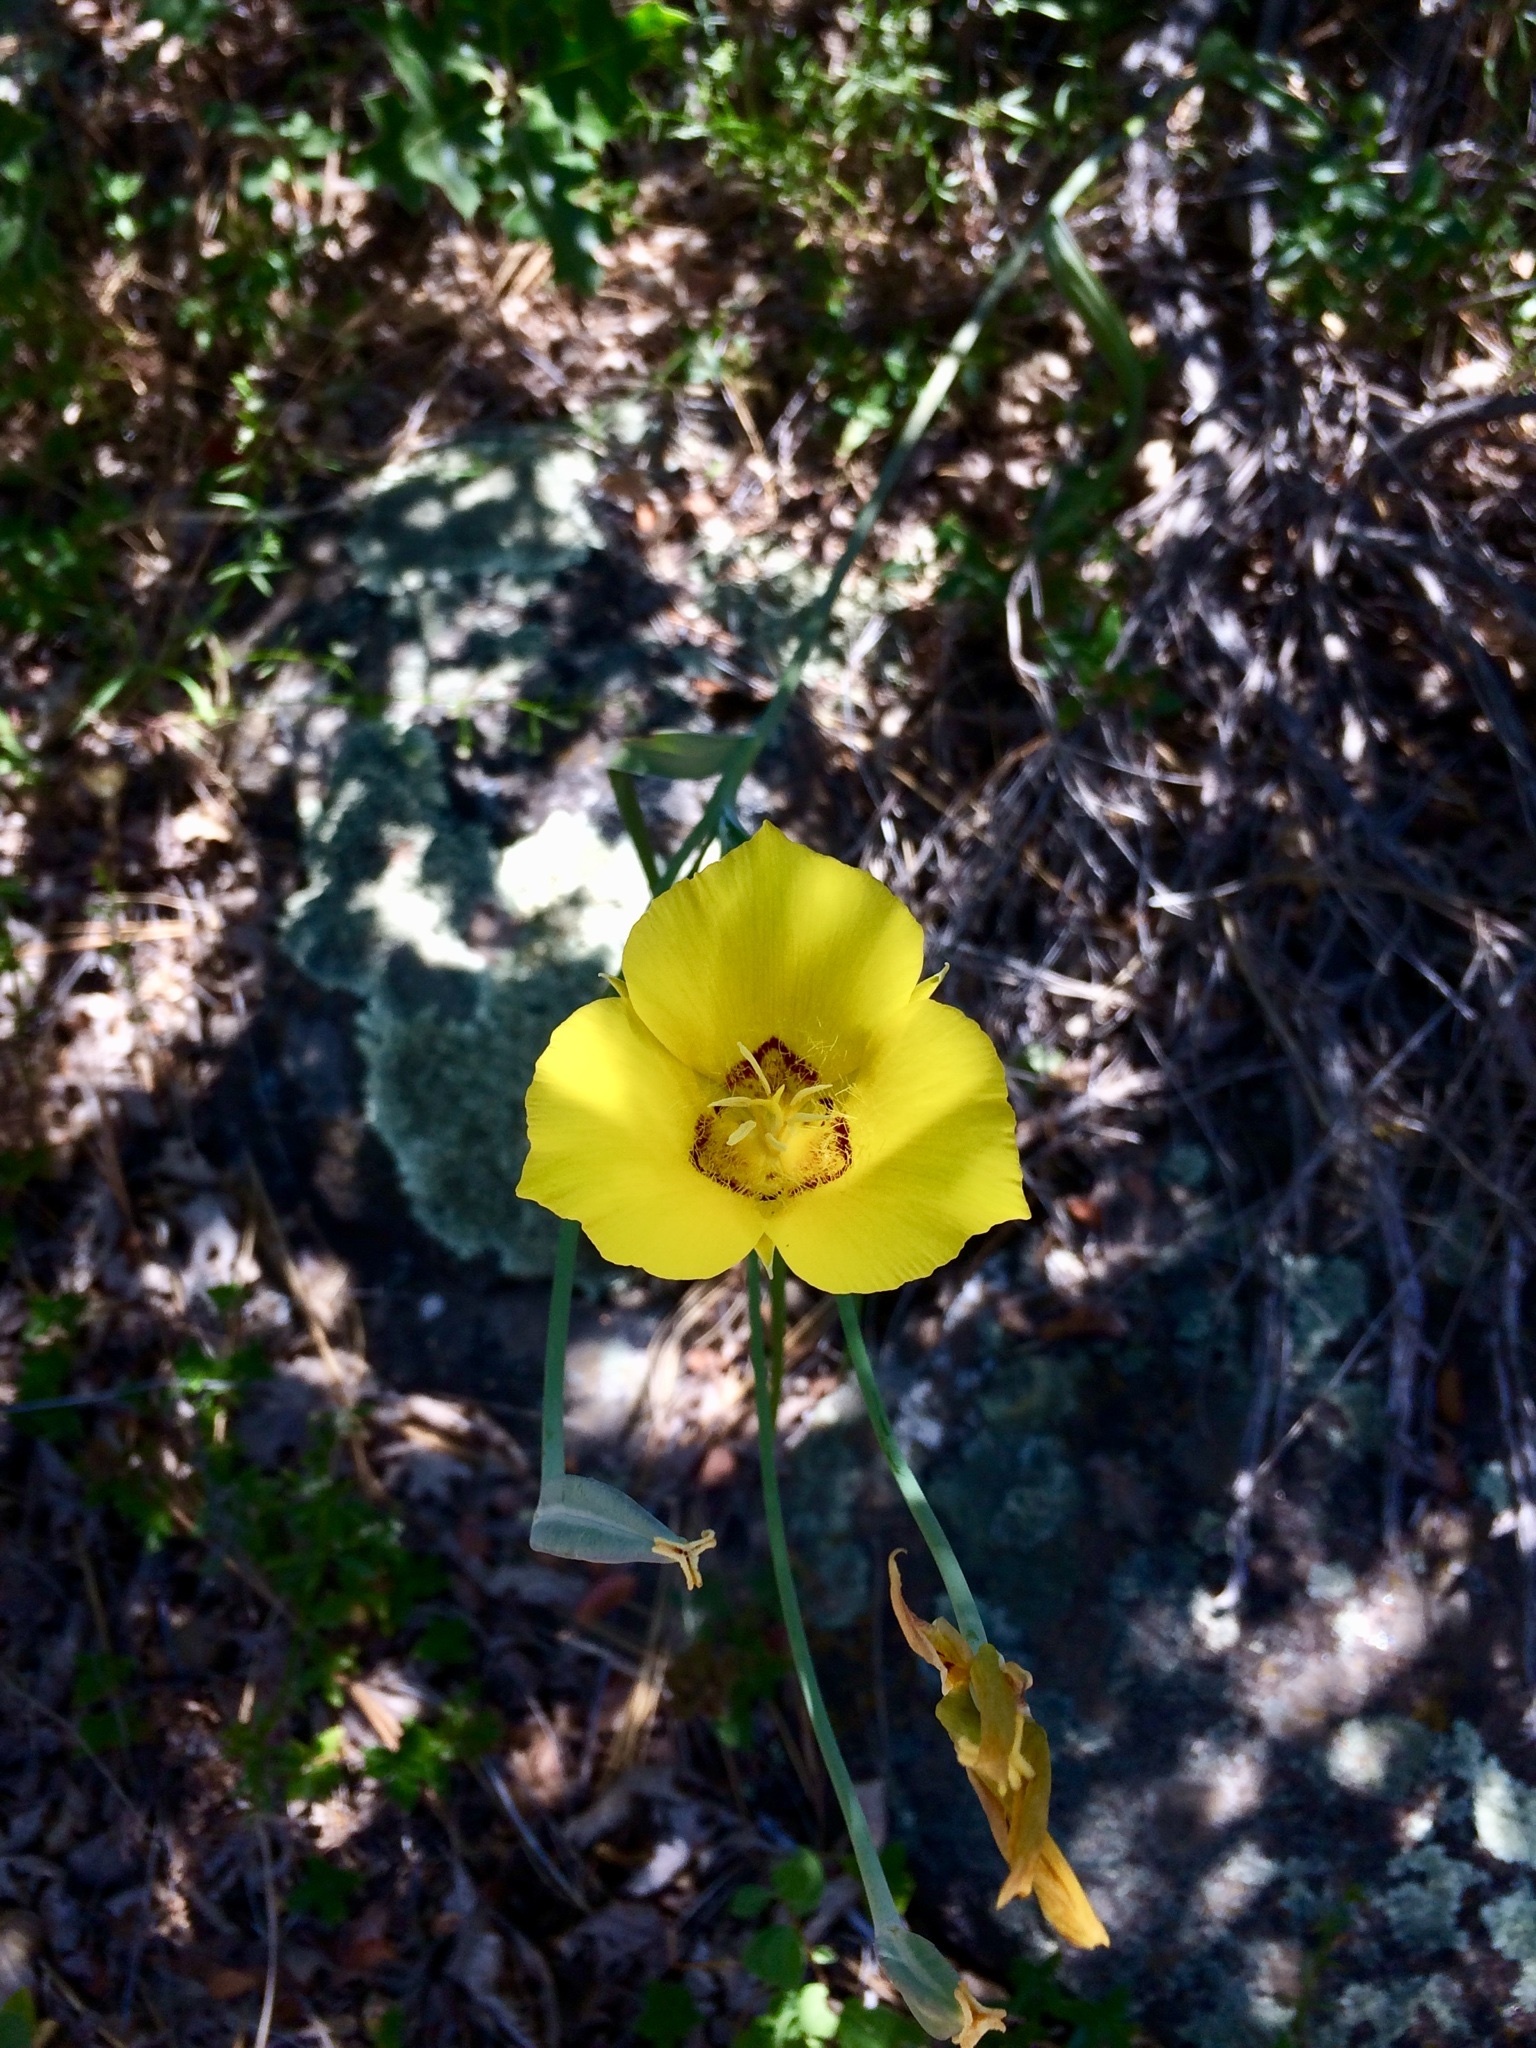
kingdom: Plantae
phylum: Tracheophyta
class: Liliopsida
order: Liliales
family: Liliaceae
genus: Calochortus
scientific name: Calochortus concolor
